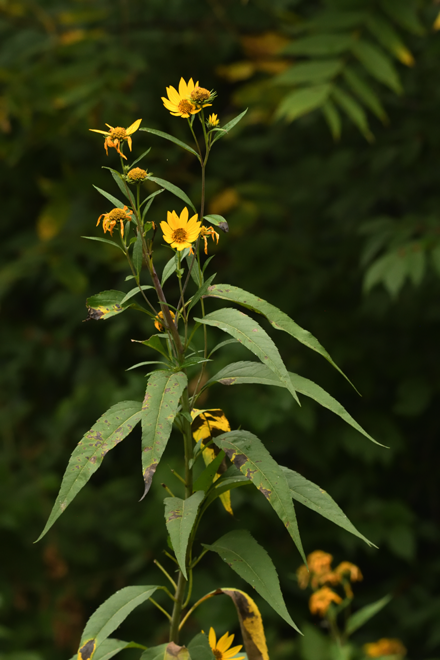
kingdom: Plantae
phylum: Tracheophyta
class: Magnoliopsida
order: Asterales
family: Asteraceae
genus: Helianthus
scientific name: Helianthus grosseserratus
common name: Sawtooth sunflower
